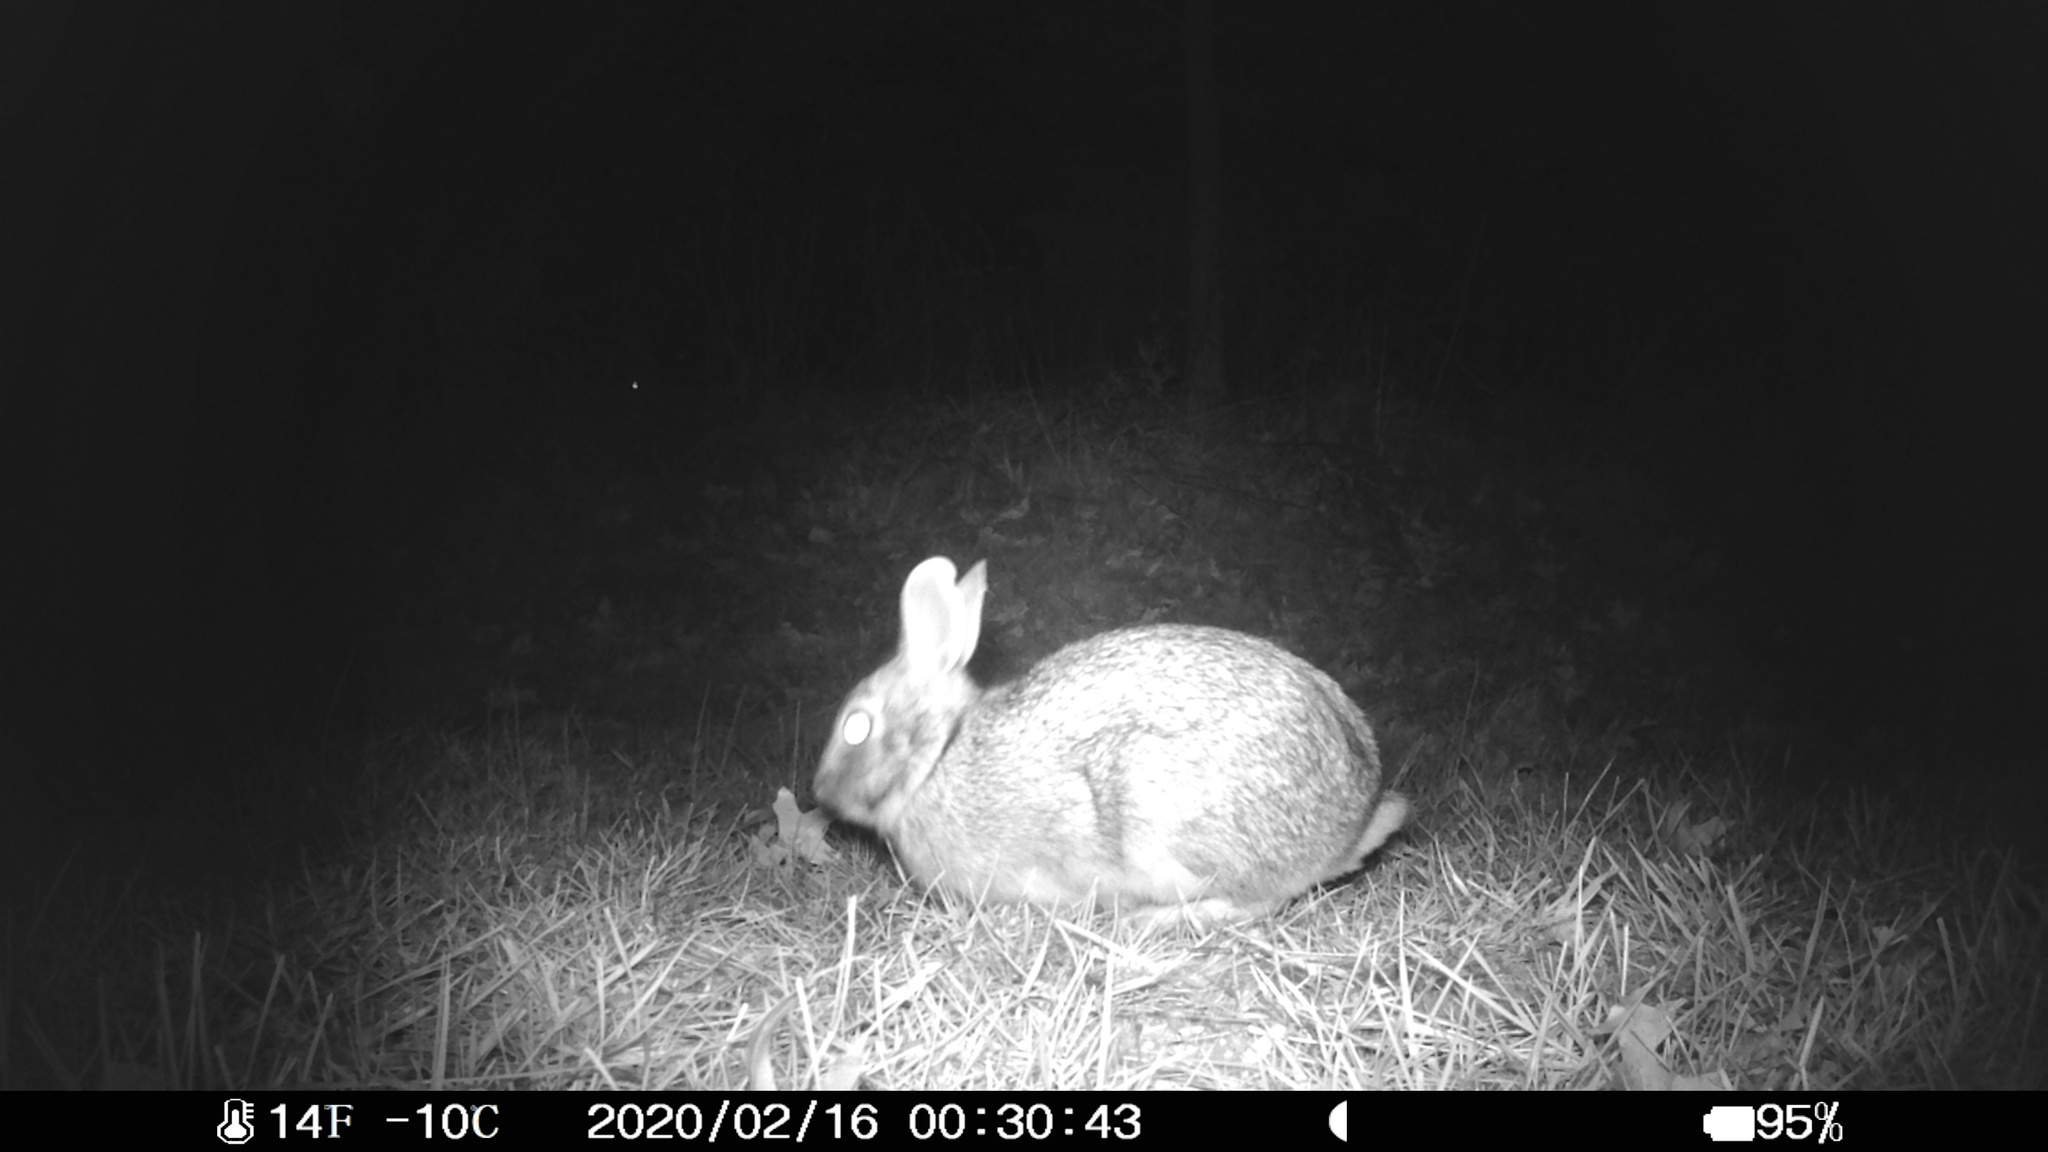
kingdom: Animalia
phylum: Chordata
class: Mammalia
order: Lagomorpha
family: Leporidae
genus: Sylvilagus
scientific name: Sylvilagus floridanus
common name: Eastern cottontail
